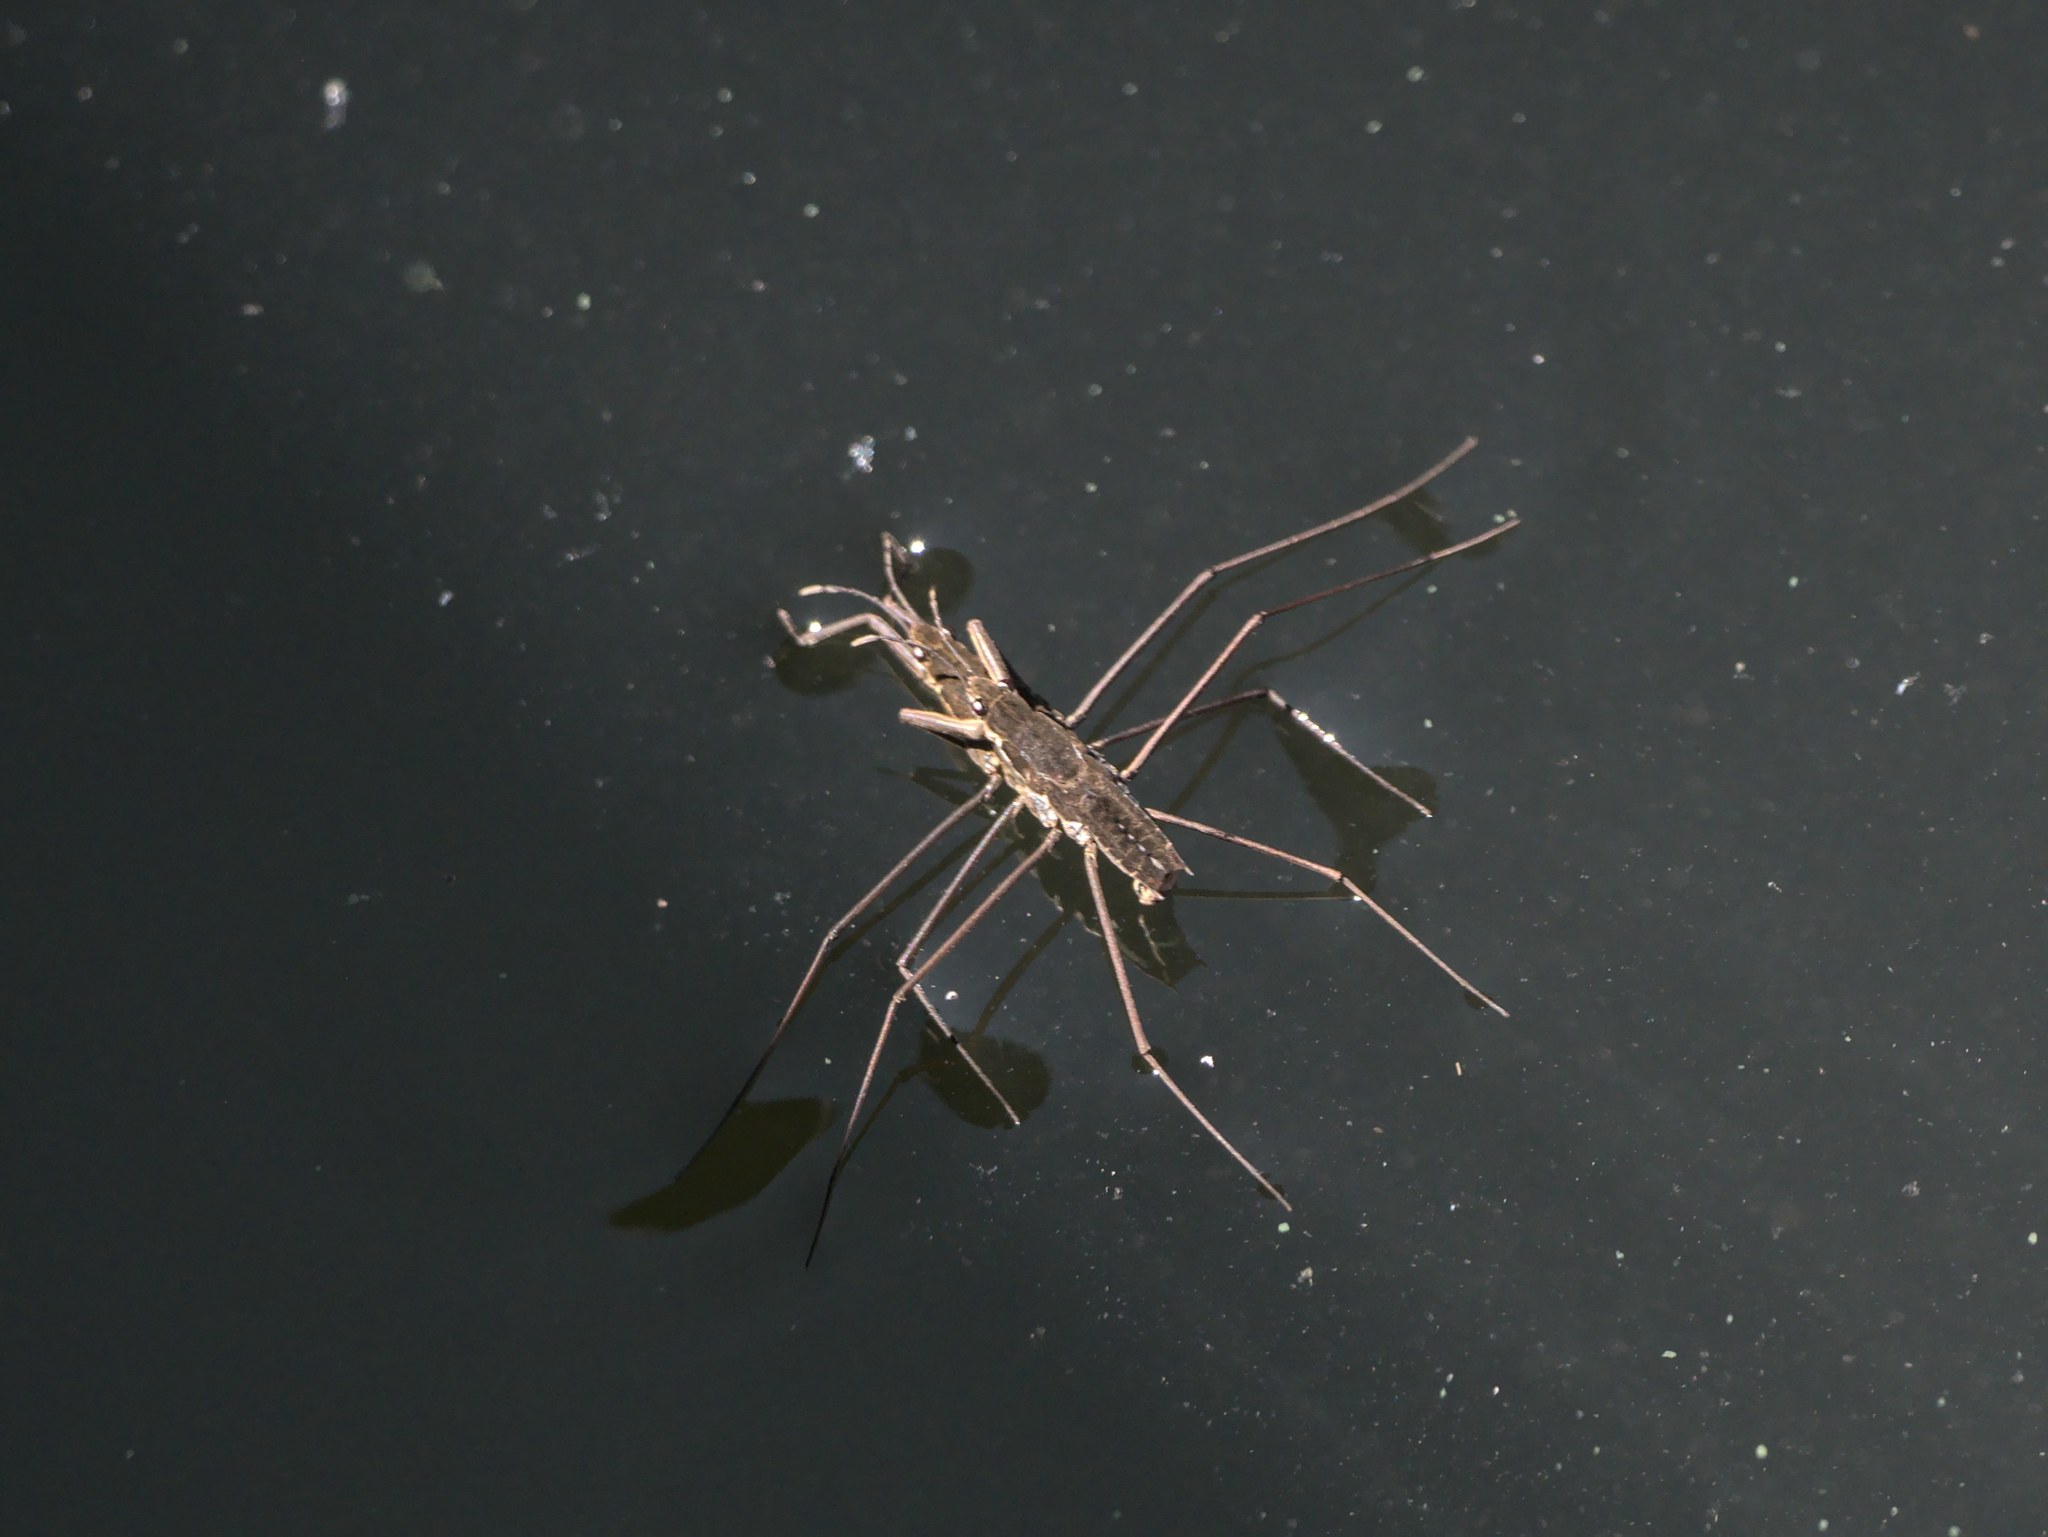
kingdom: Animalia
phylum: Arthropoda
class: Insecta
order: Hemiptera
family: Gerridae
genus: Aquarius
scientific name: Aquarius remigis
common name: Common water strider
